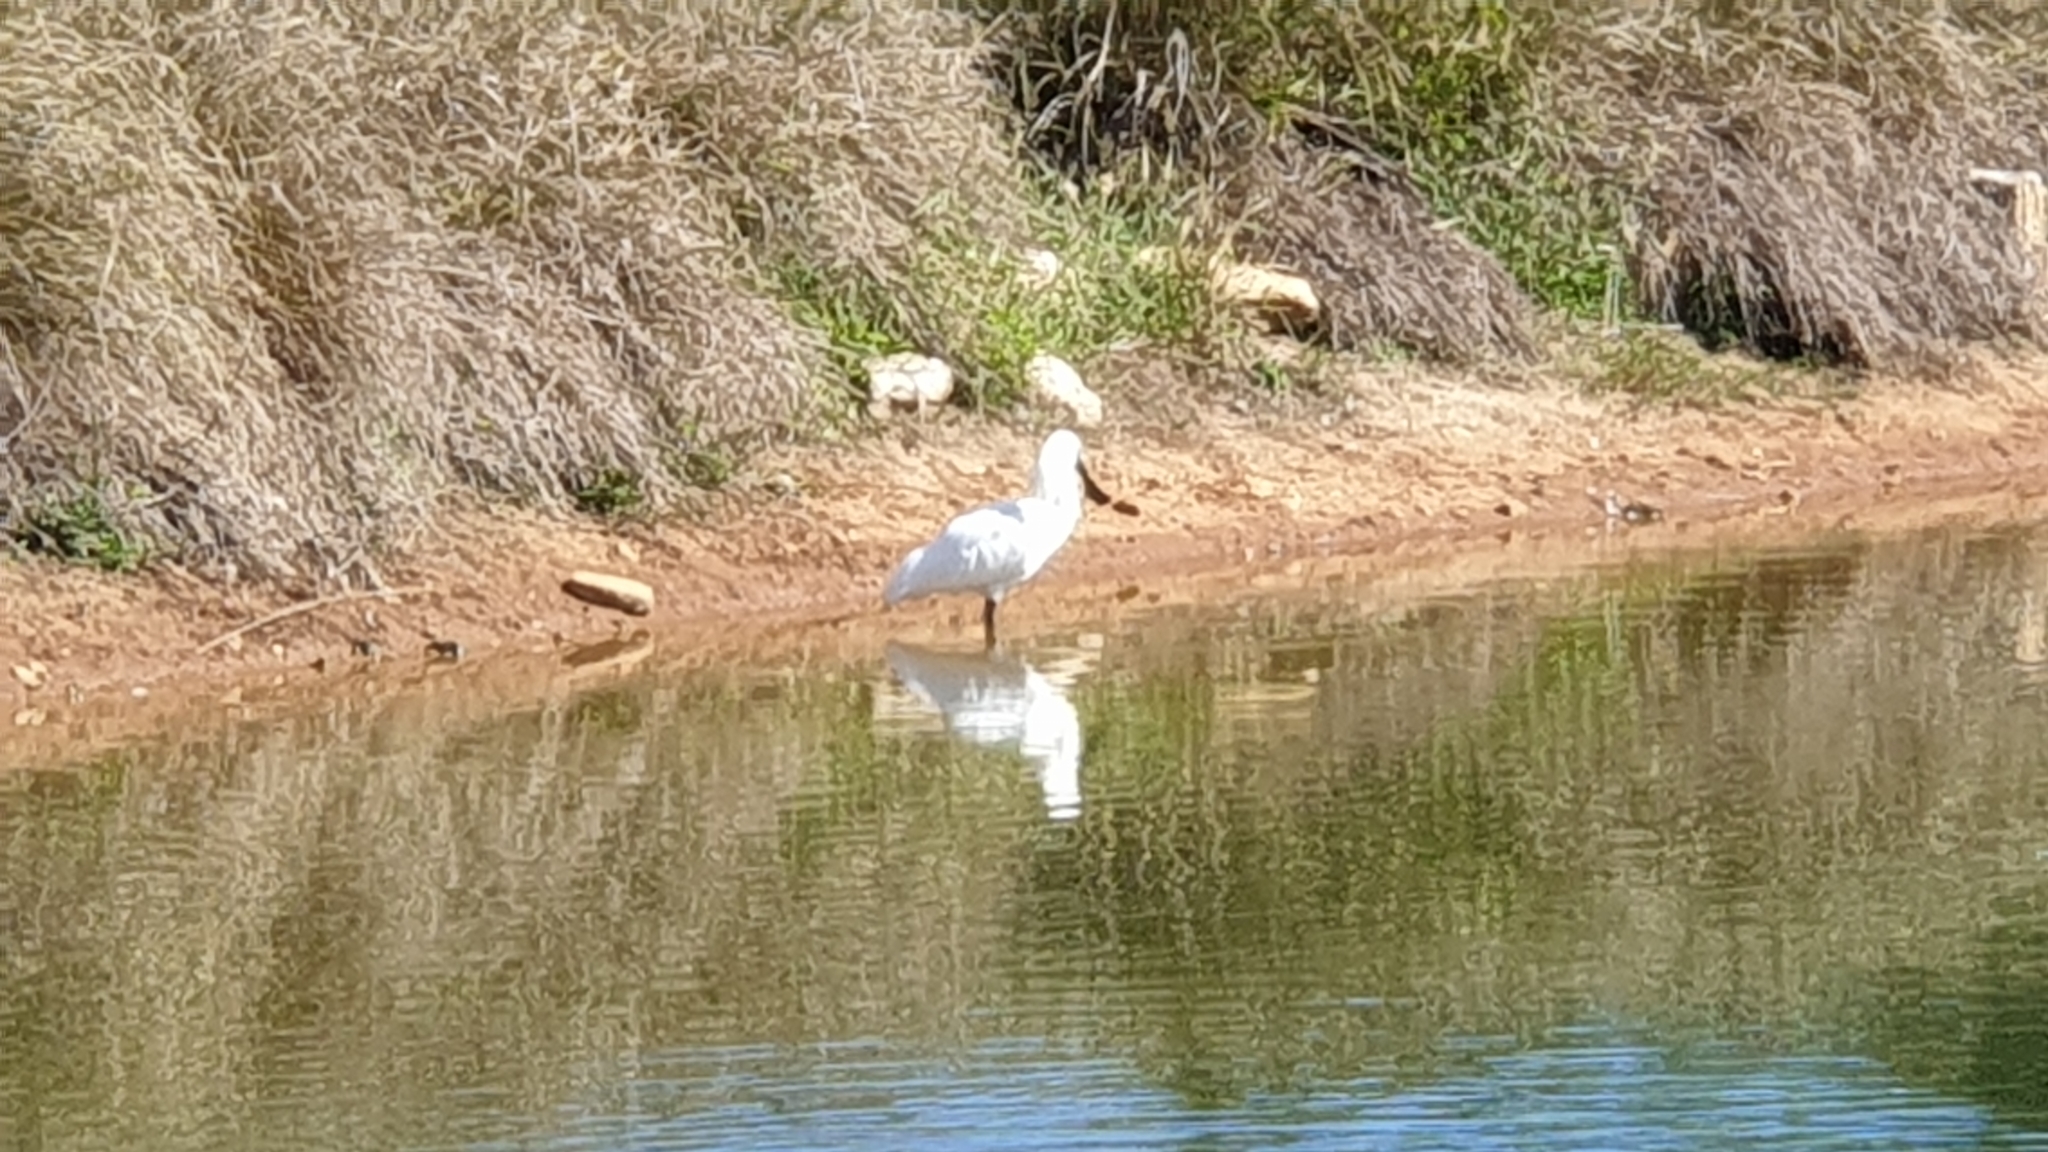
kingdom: Animalia
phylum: Chordata
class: Aves
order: Pelecaniformes
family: Threskiornithidae
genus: Platalea
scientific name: Platalea regia
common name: Royal spoonbill
